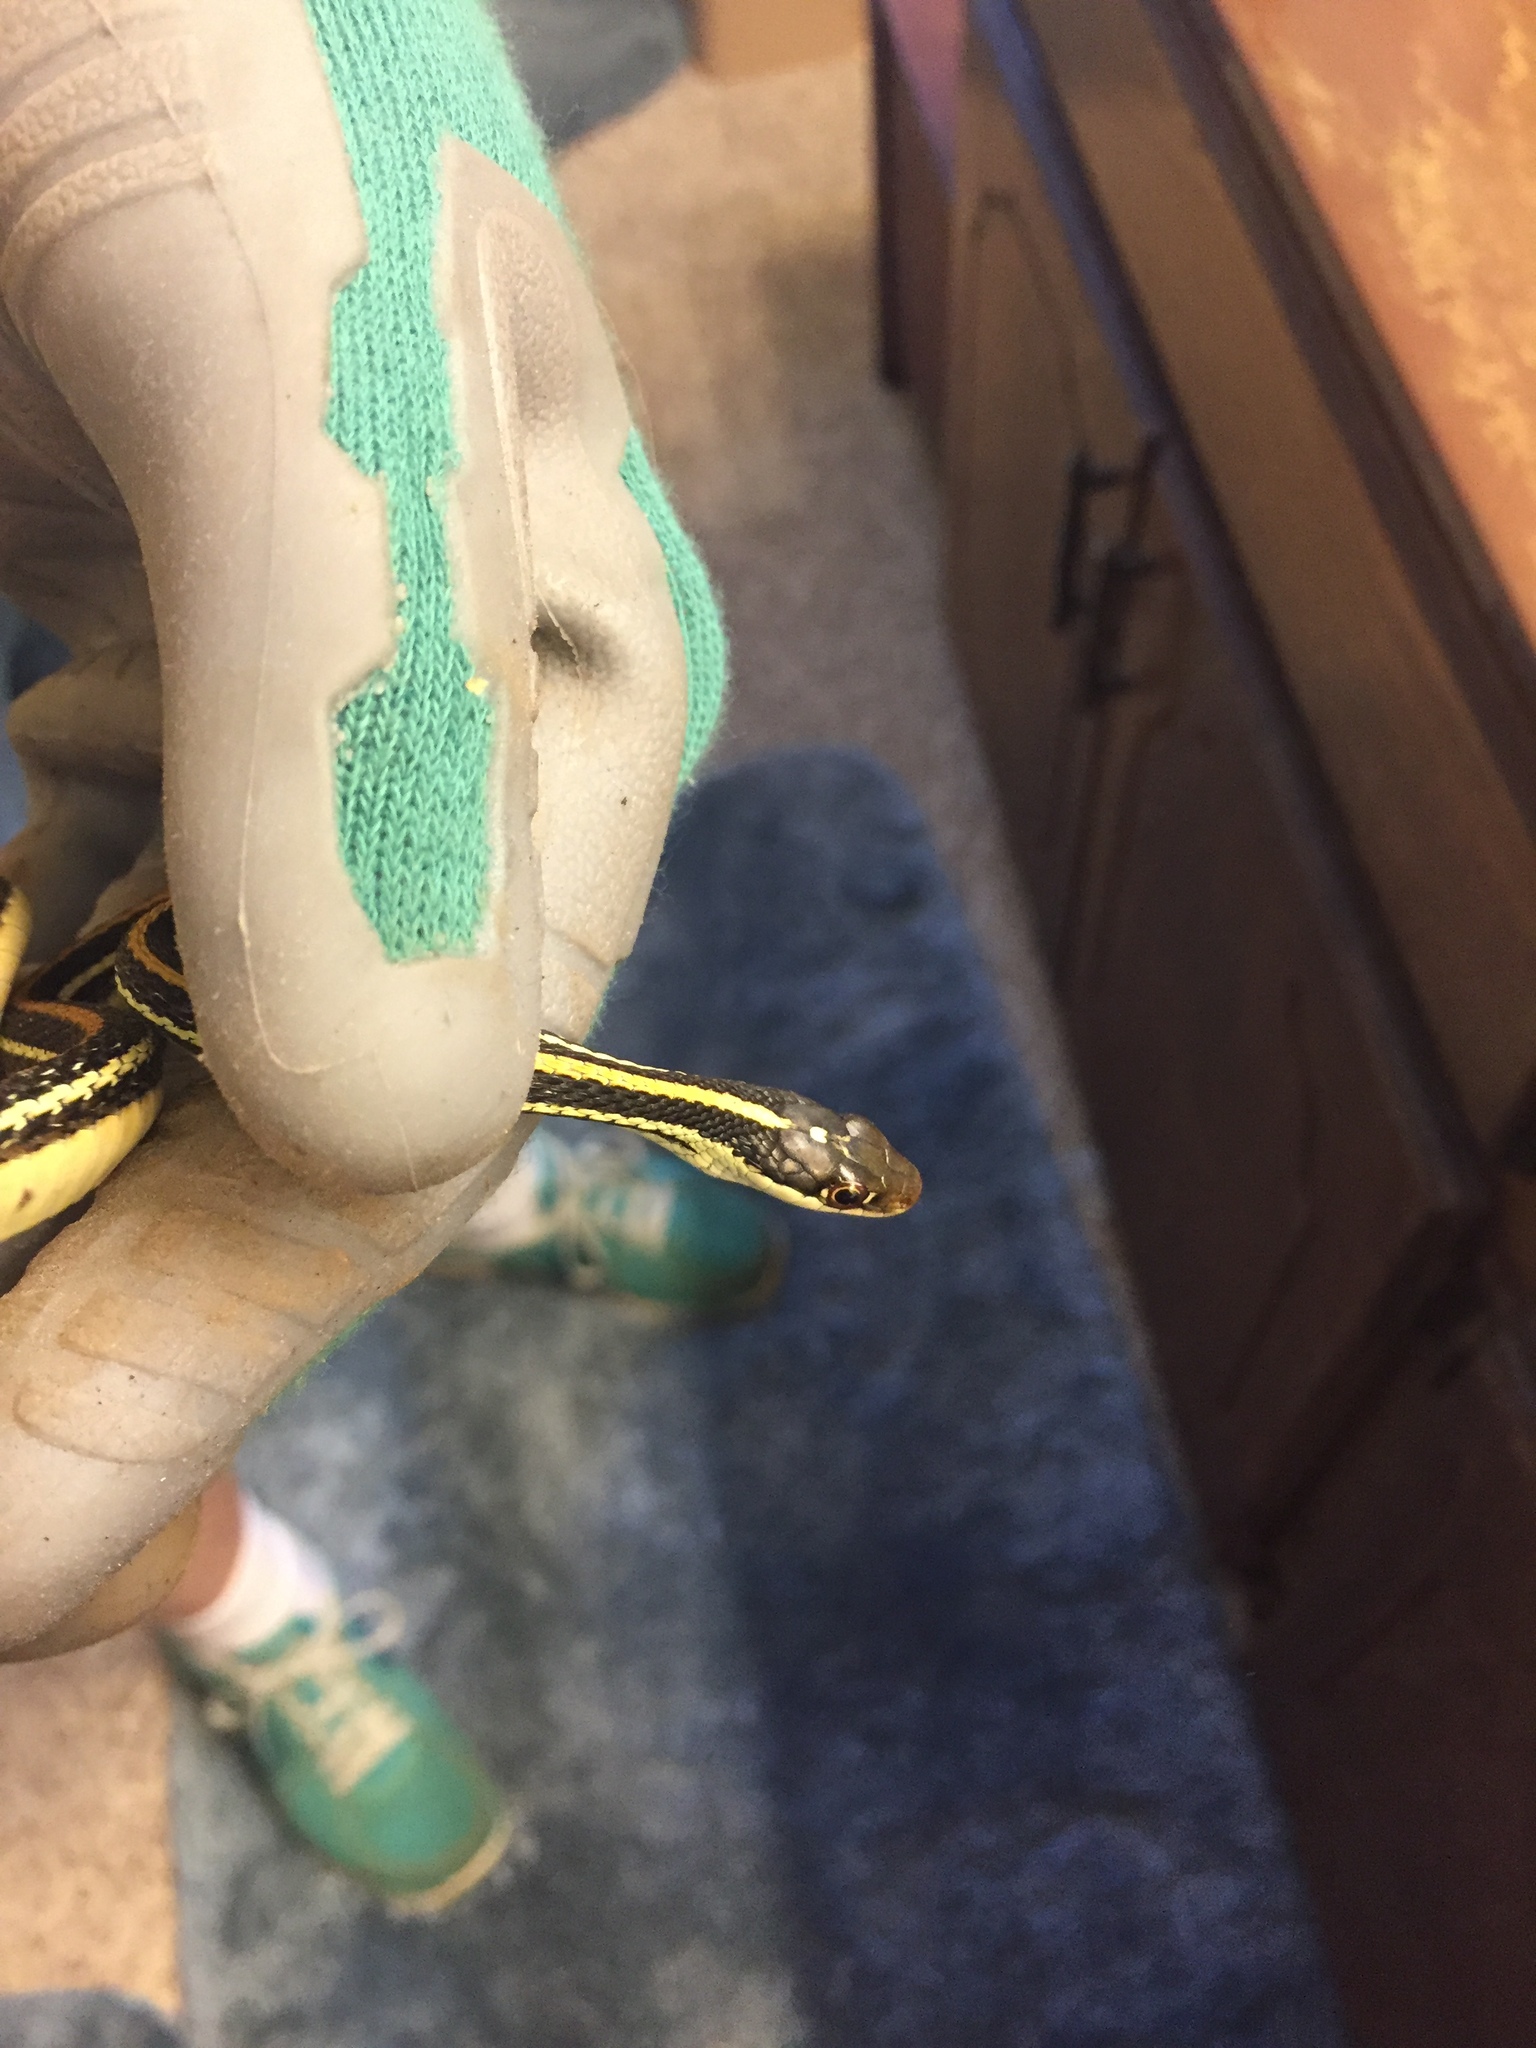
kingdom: Animalia
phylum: Chordata
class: Squamata
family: Colubridae
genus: Thamnophis
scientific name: Thamnophis proximus
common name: Western ribbon snake
